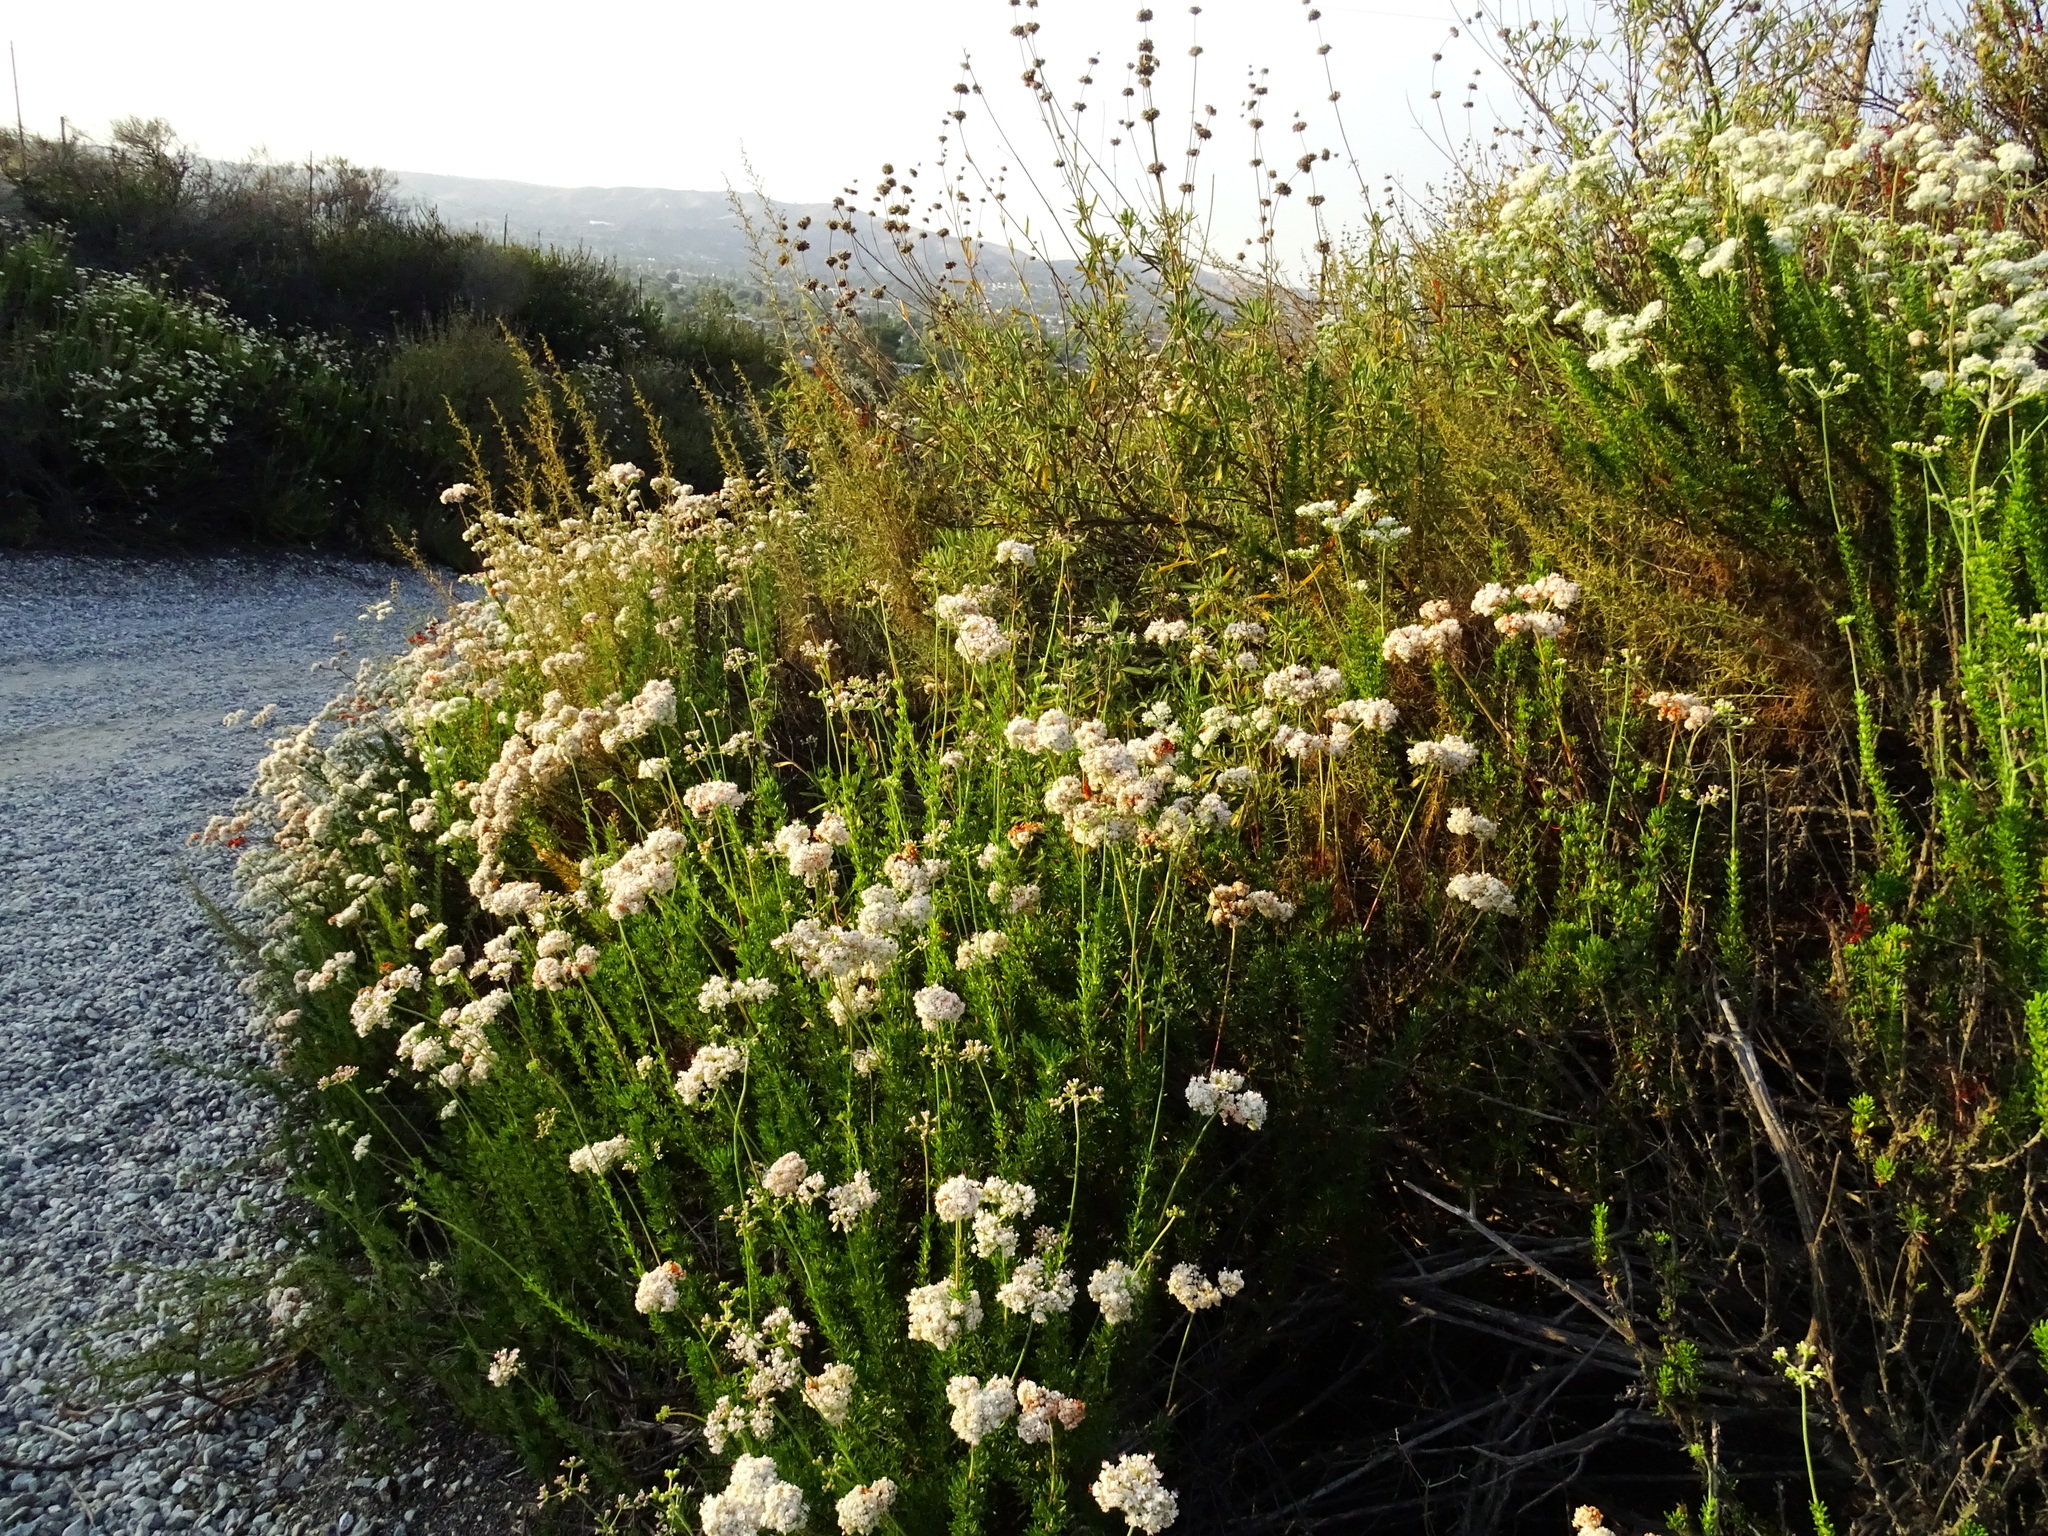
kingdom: Plantae
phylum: Tracheophyta
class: Magnoliopsida
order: Caryophyllales
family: Polygonaceae
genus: Eriogonum
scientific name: Eriogonum fasciculatum
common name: California wild buckwheat
